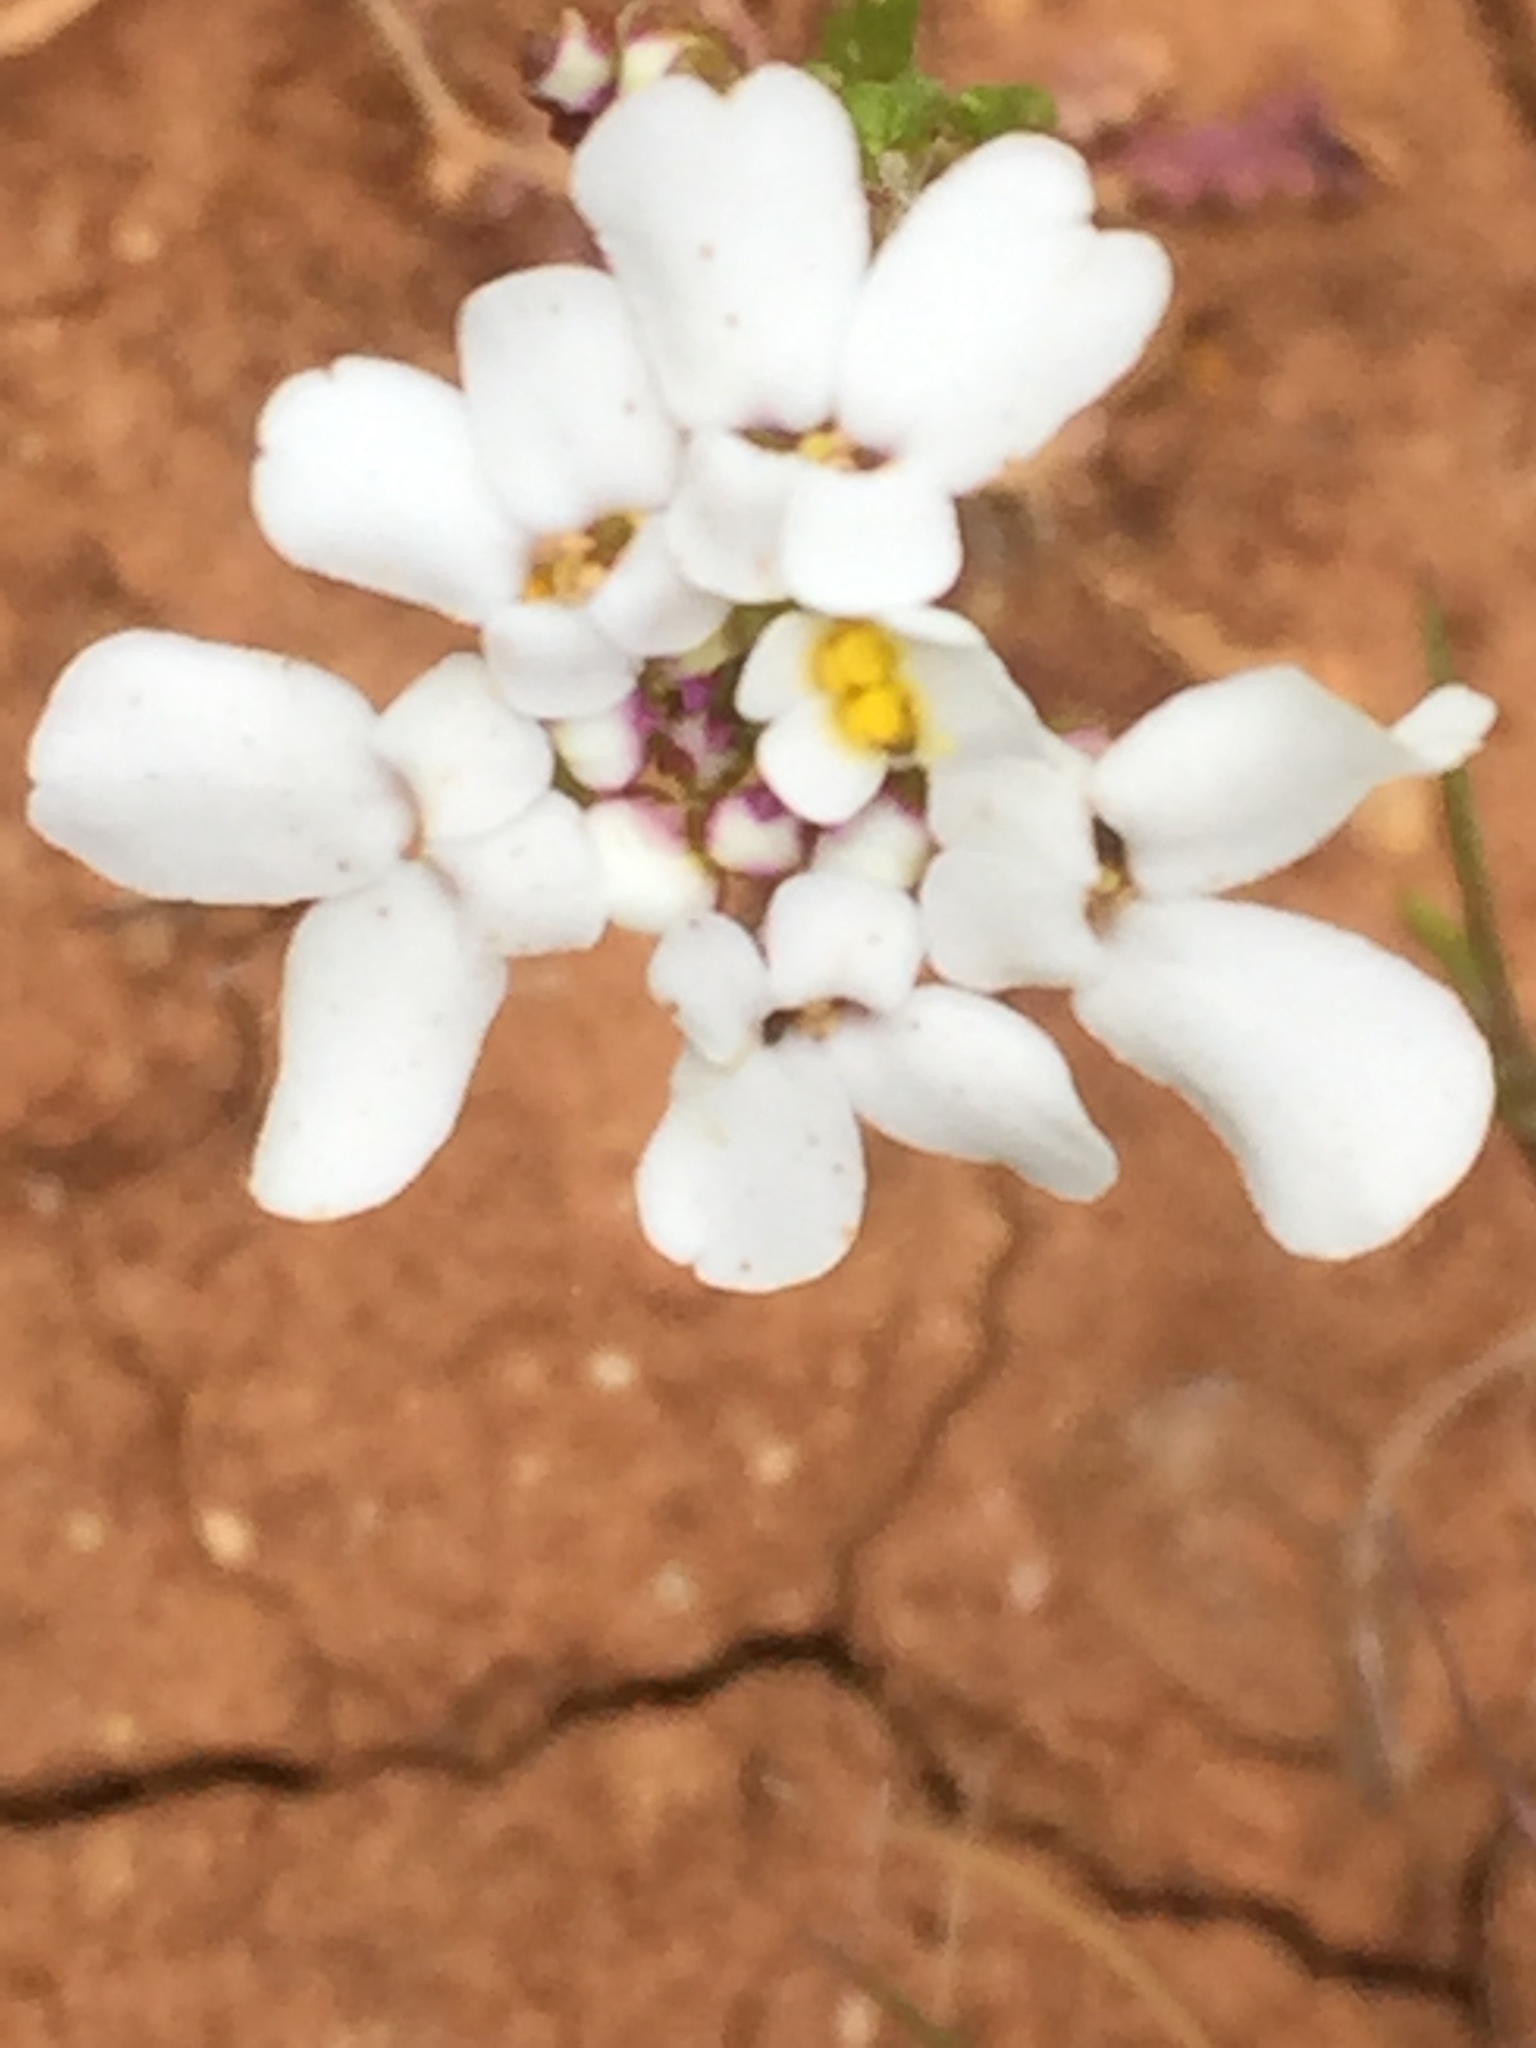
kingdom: Plantae
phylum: Tracheophyta
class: Magnoliopsida
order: Brassicales
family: Brassicaceae
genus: Iberis
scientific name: Iberis pectinata
